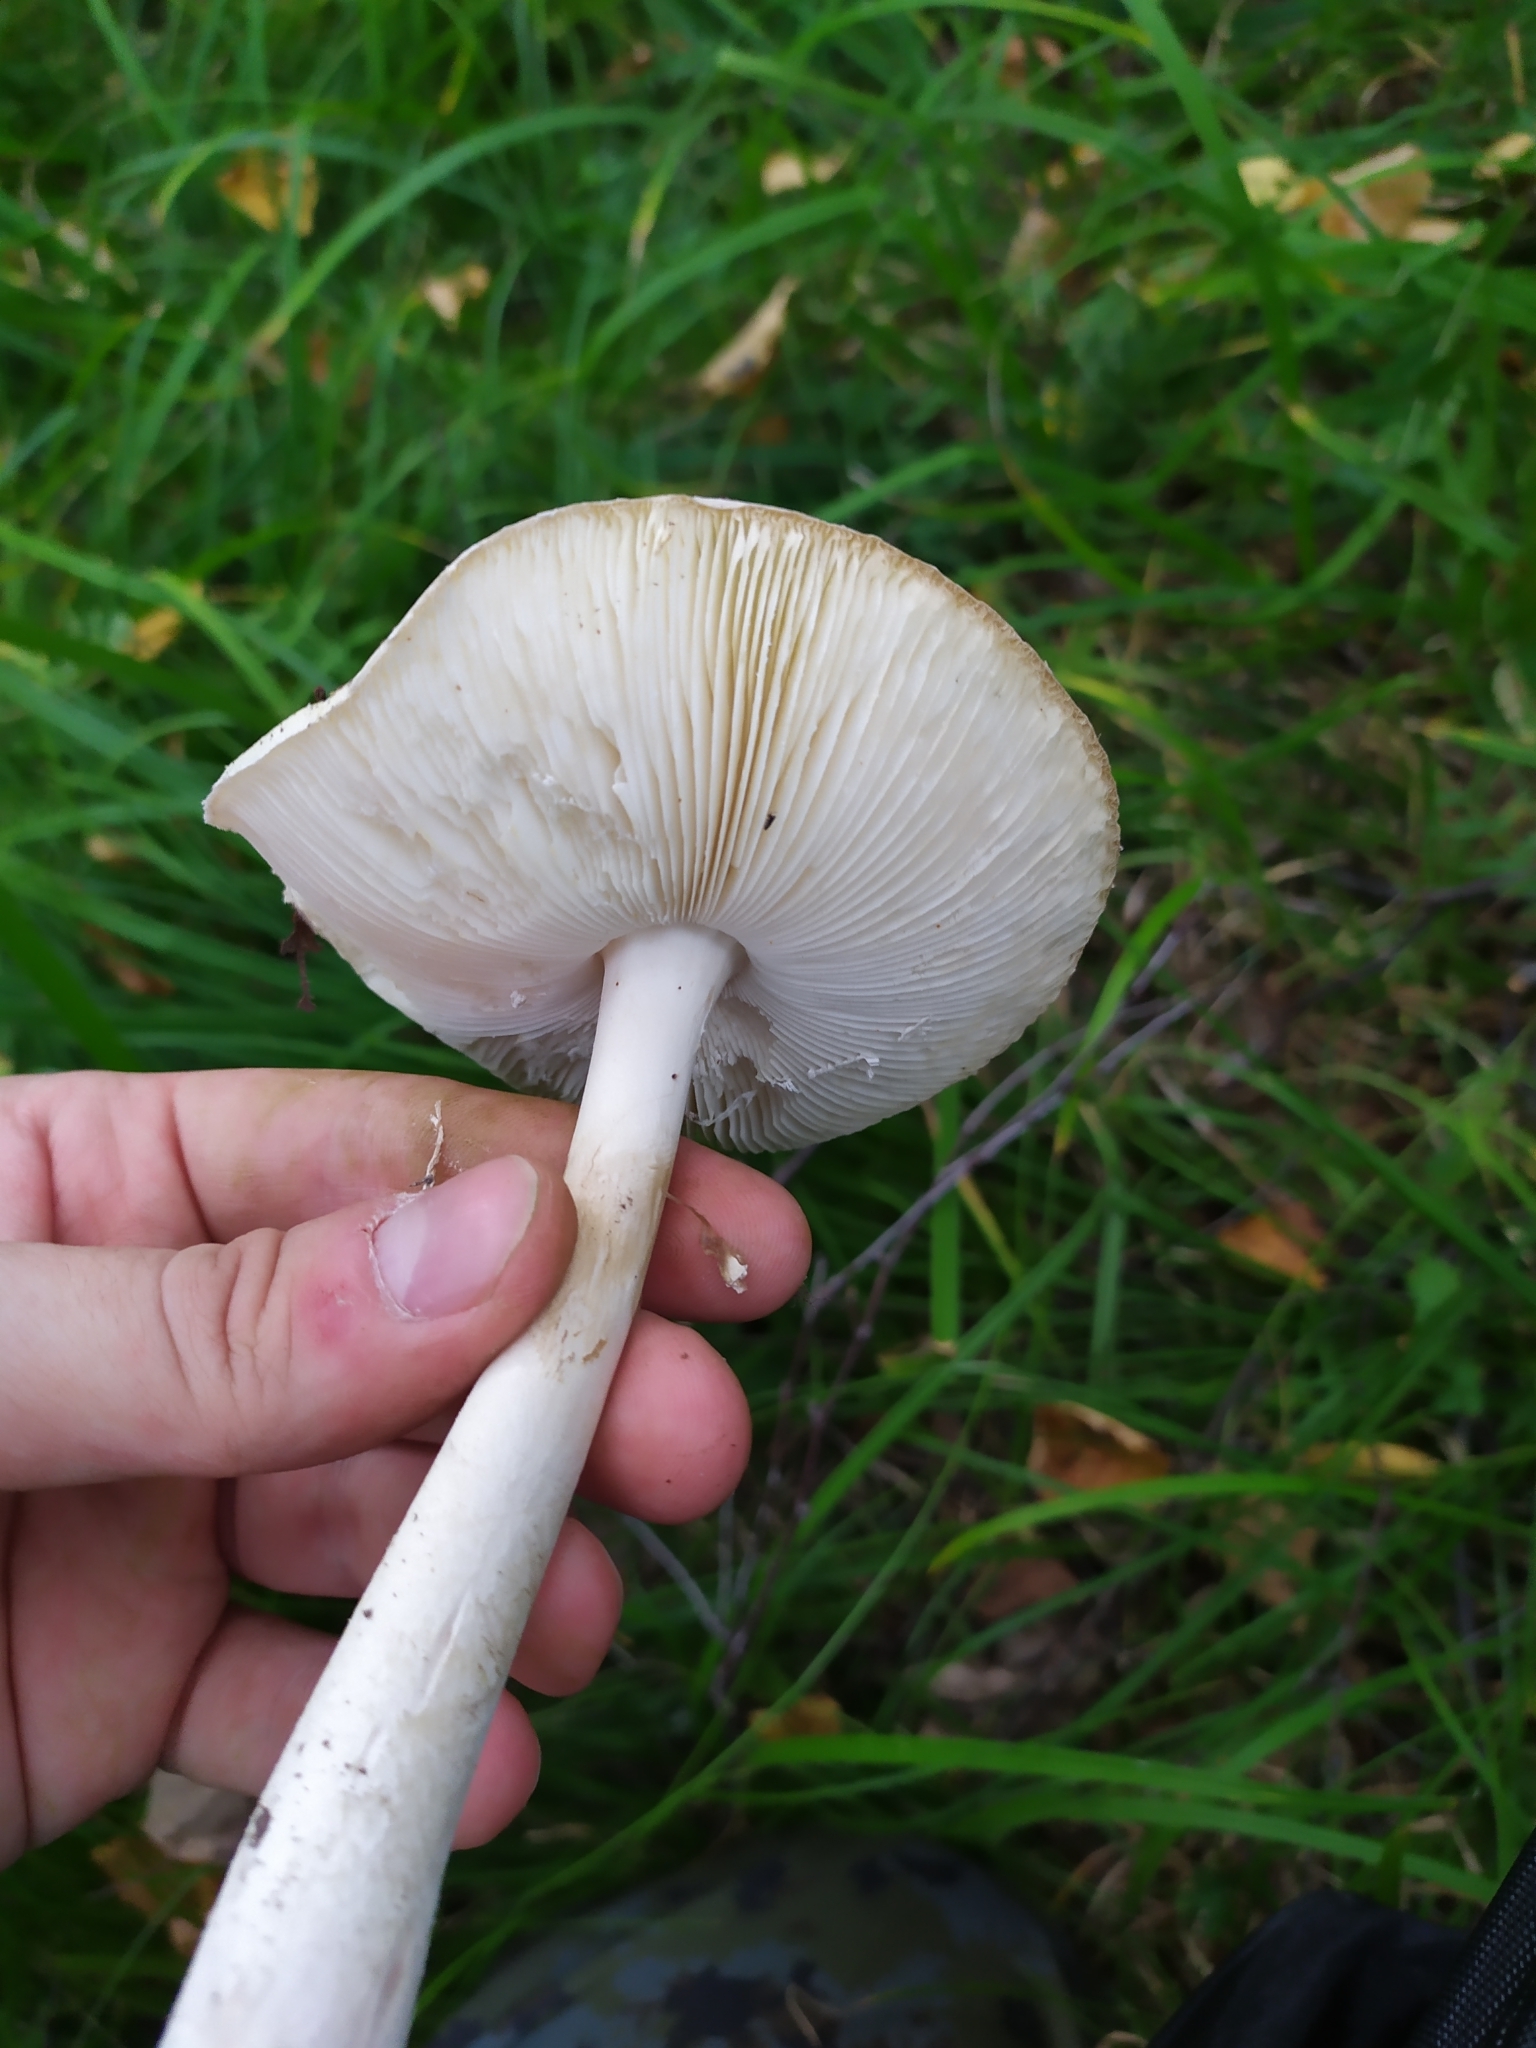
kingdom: Fungi
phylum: Basidiomycota
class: Agaricomycetes
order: Agaricales
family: Tricholomataceae
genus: Tricholoma
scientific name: Tricholoma stiparophyllum
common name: Chemical knight
